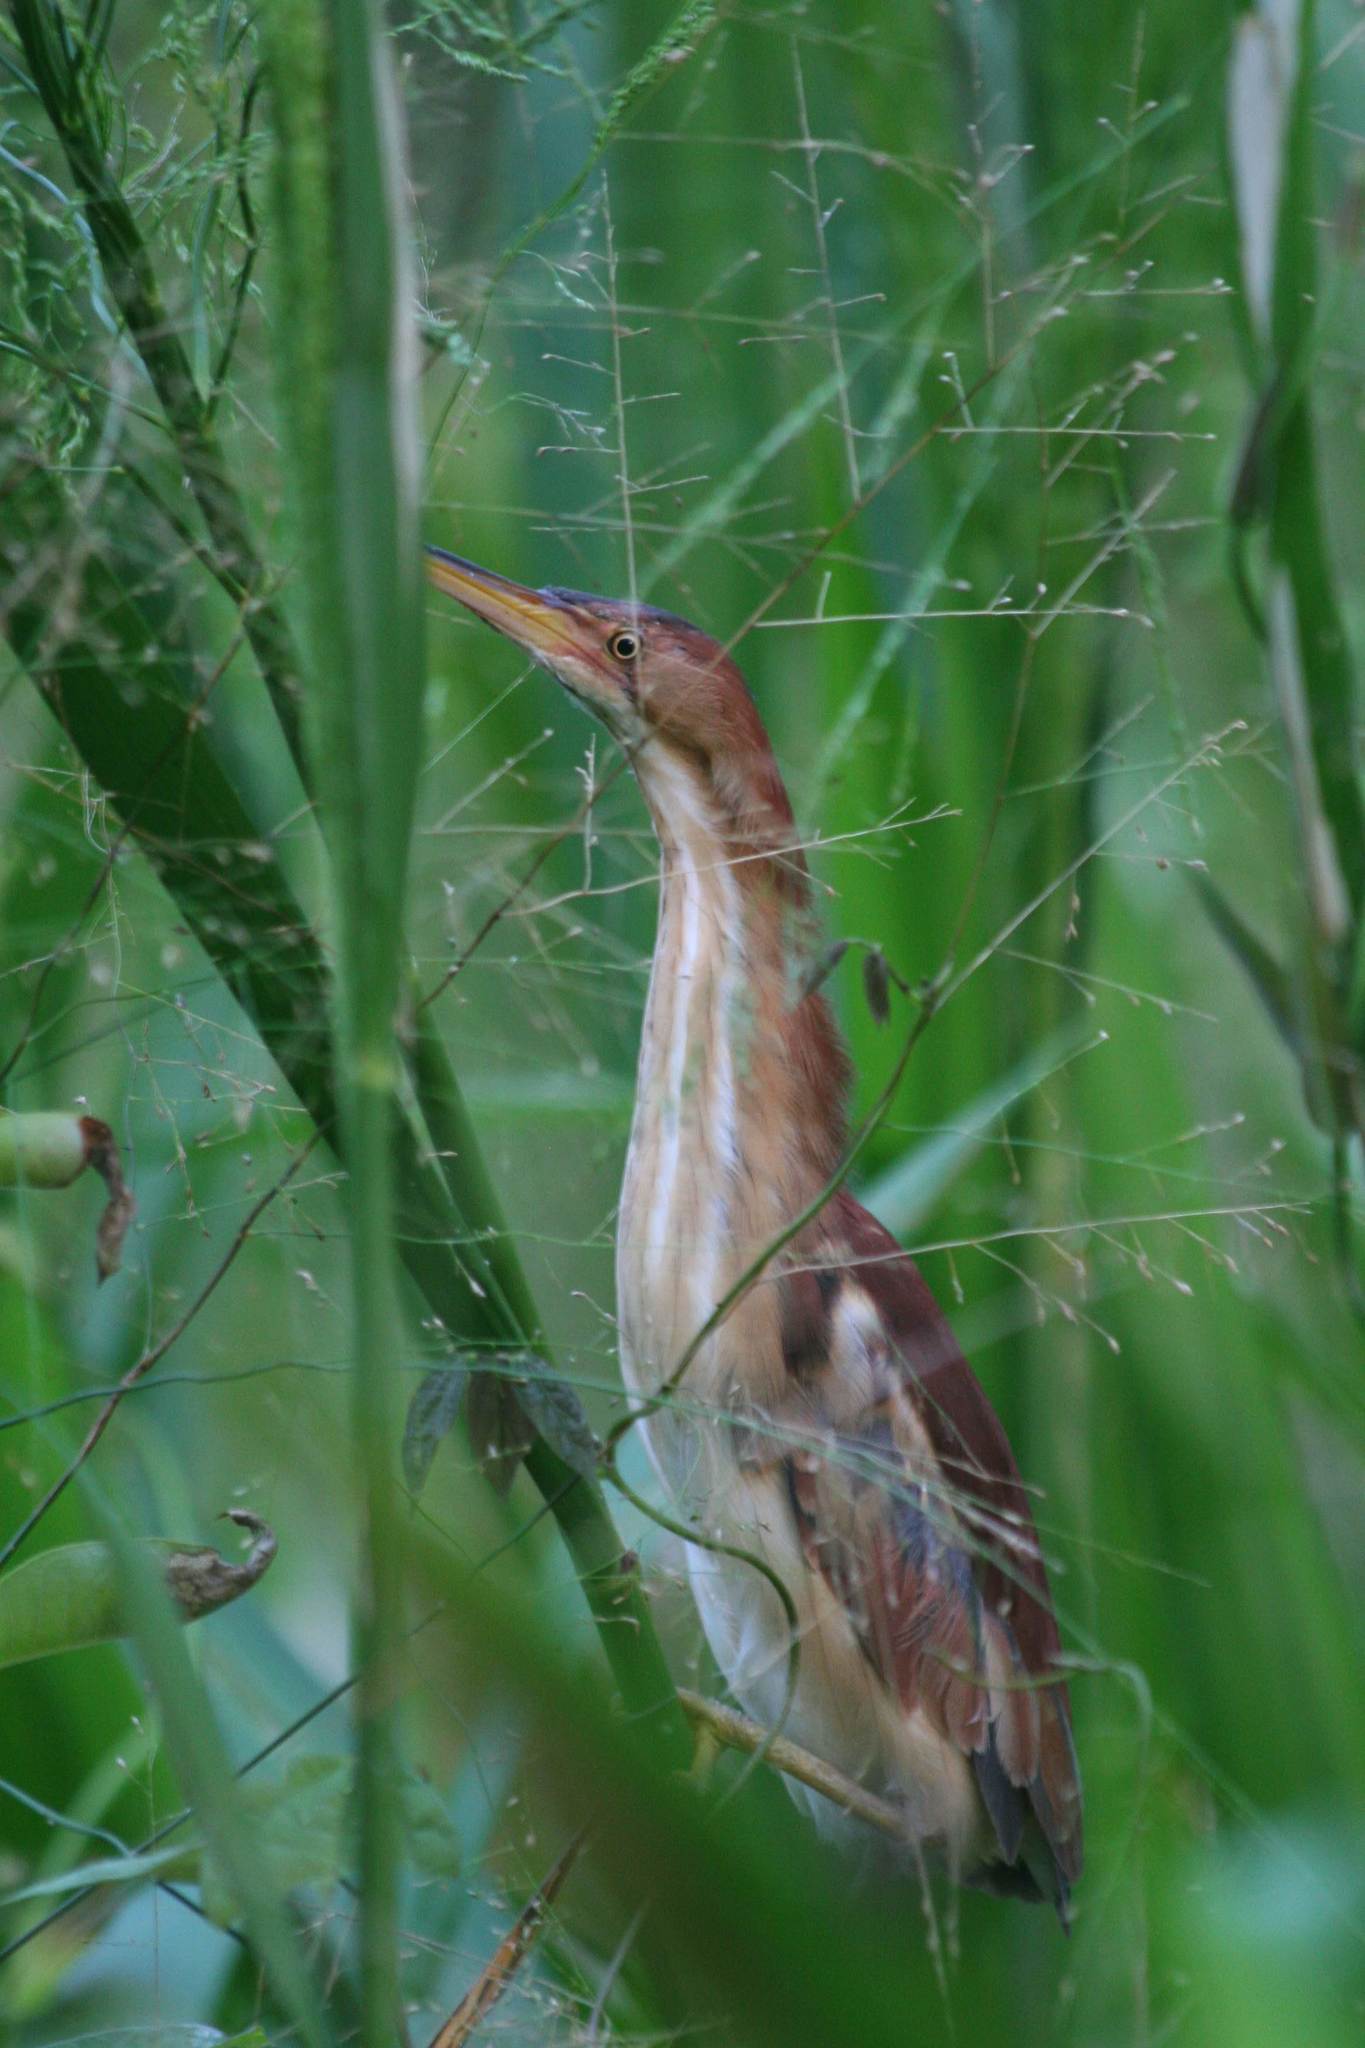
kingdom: Animalia
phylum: Chordata
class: Aves
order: Pelecaniformes
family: Ardeidae
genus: Ixobrychus
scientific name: Ixobrychus exilis
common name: Least bittern
